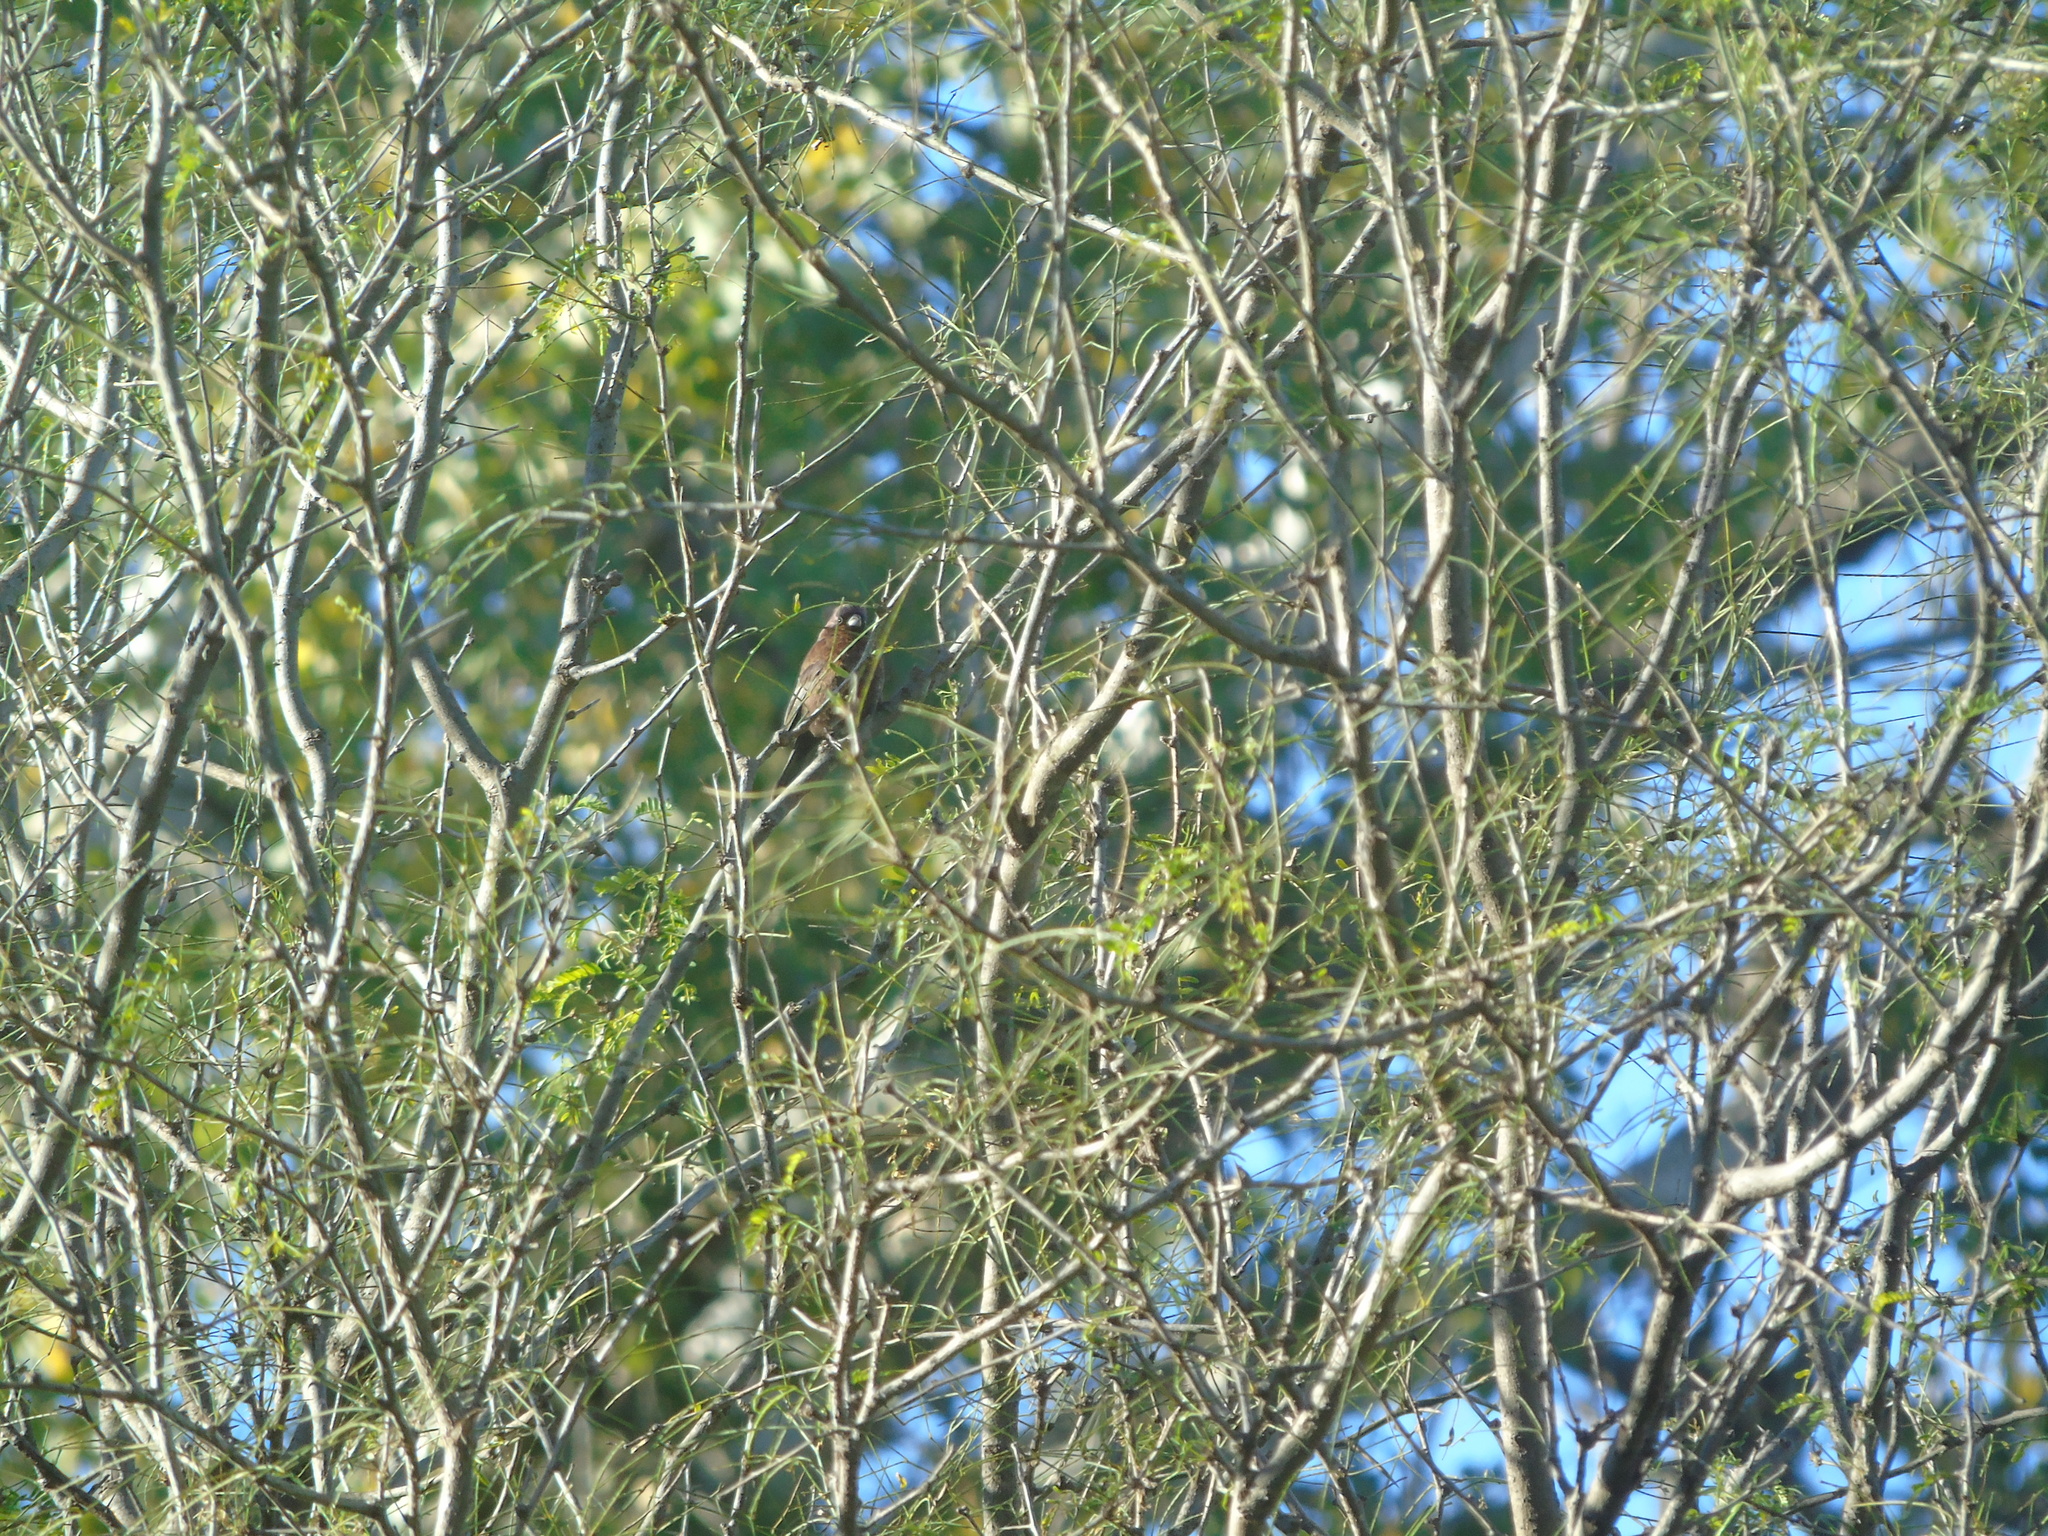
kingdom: Animalia
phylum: Chordata
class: Aves
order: Passeriformes
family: Cardinalidae
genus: Passerina
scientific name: Passerina versicolor
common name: Varied bunting
